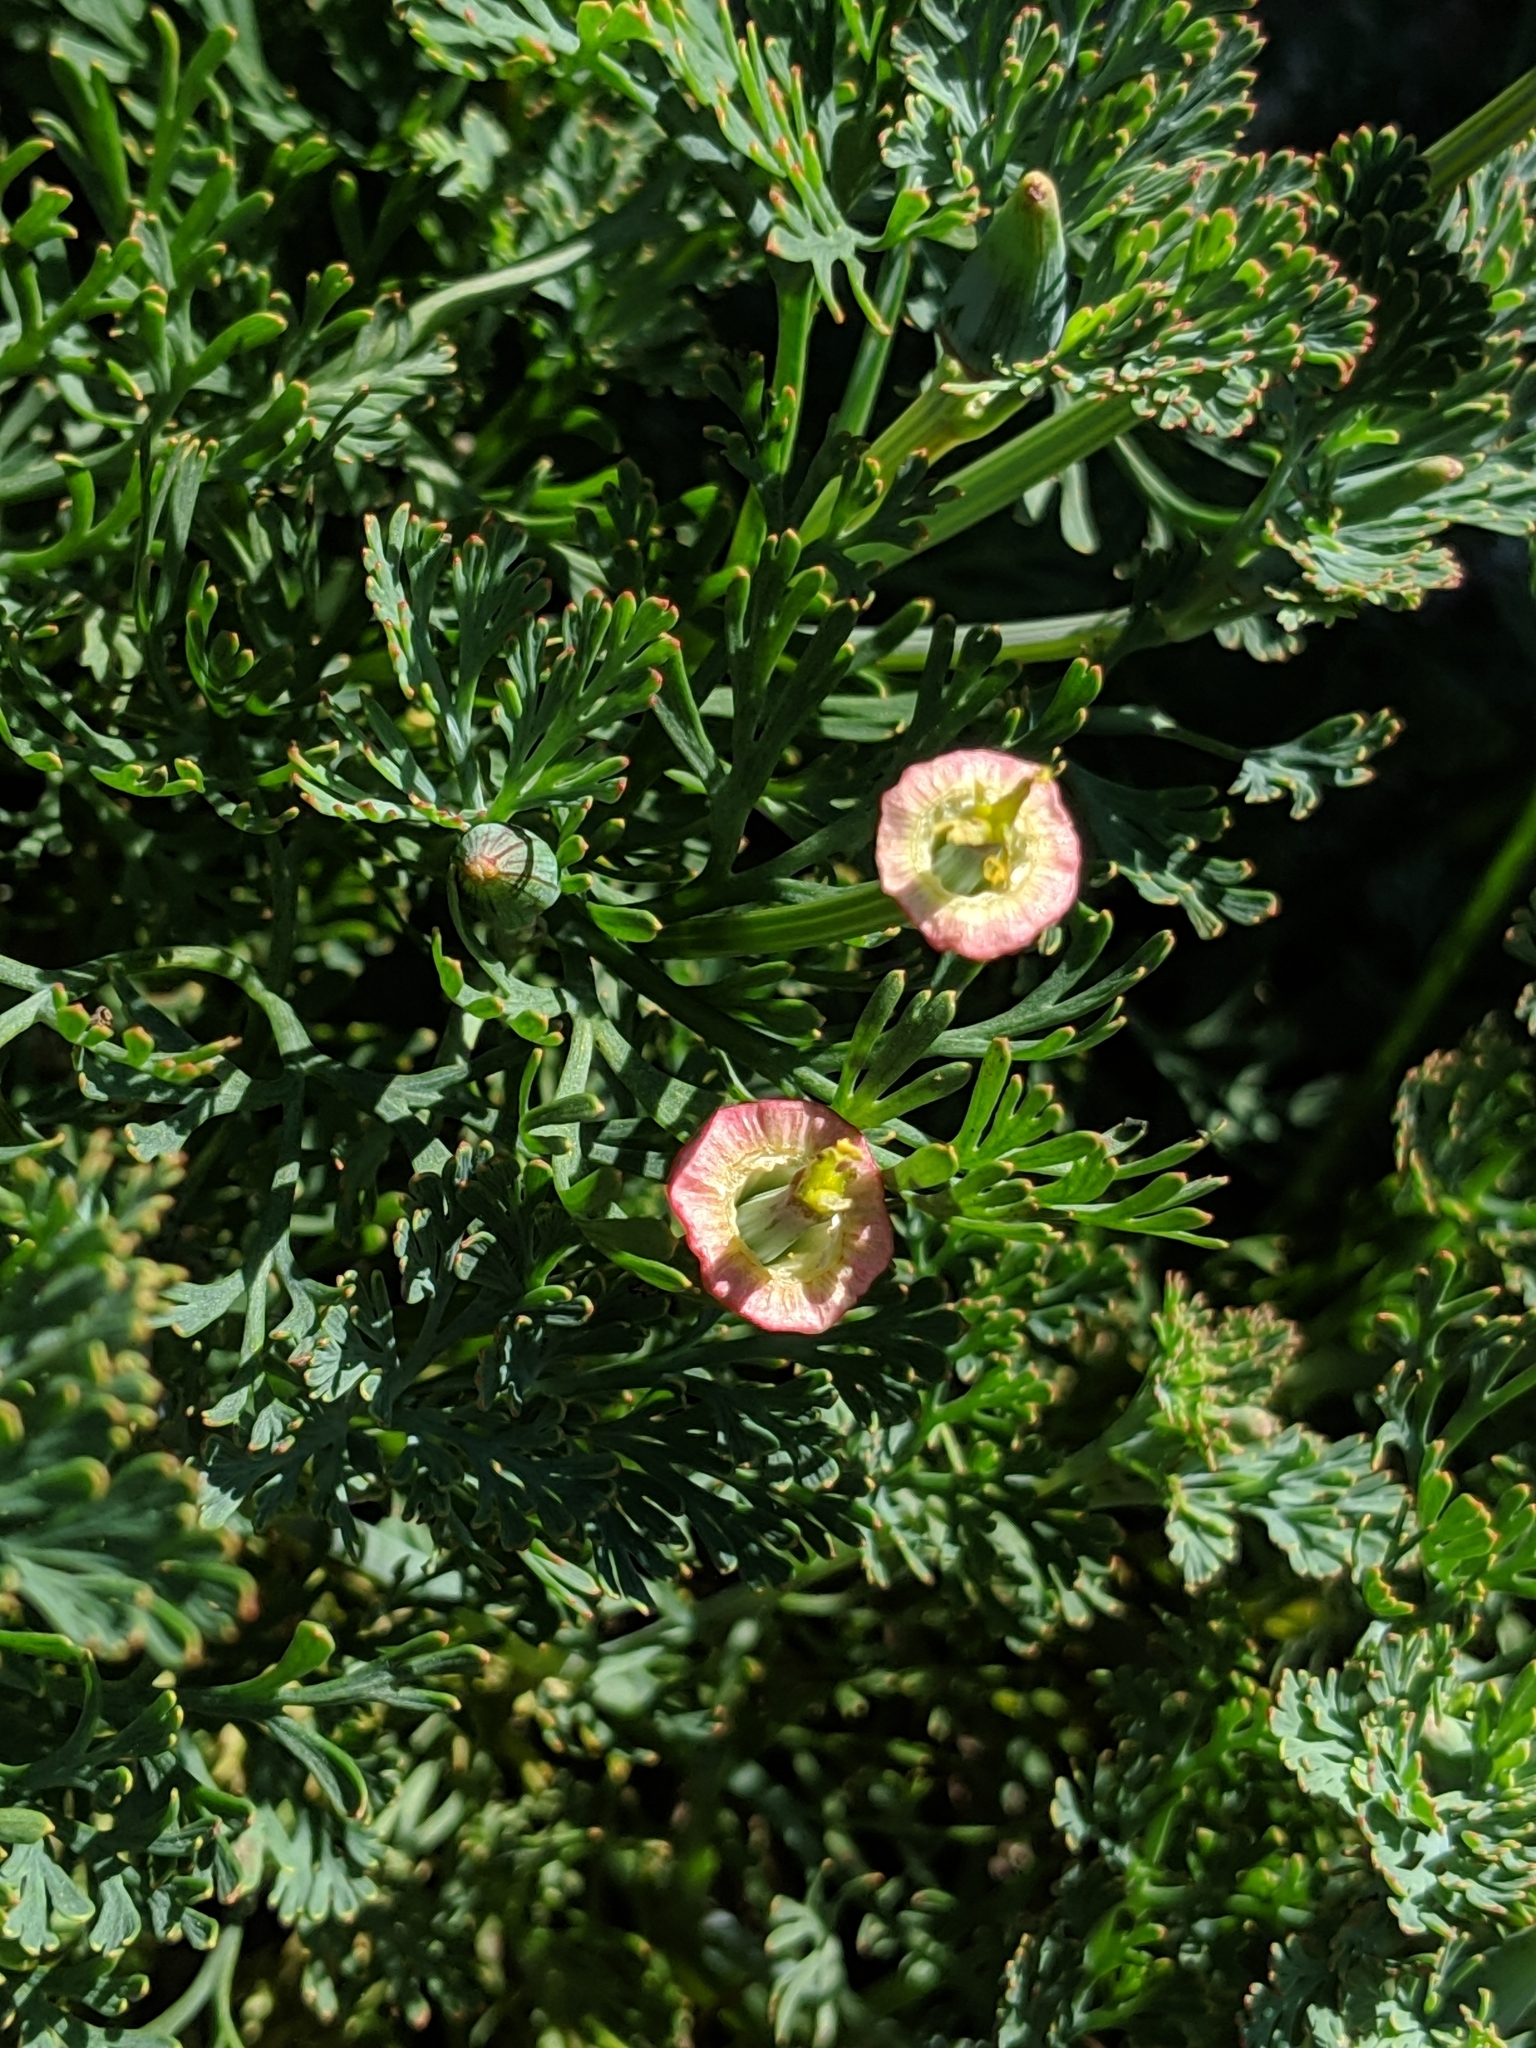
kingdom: Plantae
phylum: Tracheophyta
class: Magnoliopsida
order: Ranunculales
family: Papaveraceae
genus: Eschscholzia
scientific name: Eschscholzia californica
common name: California poppy
